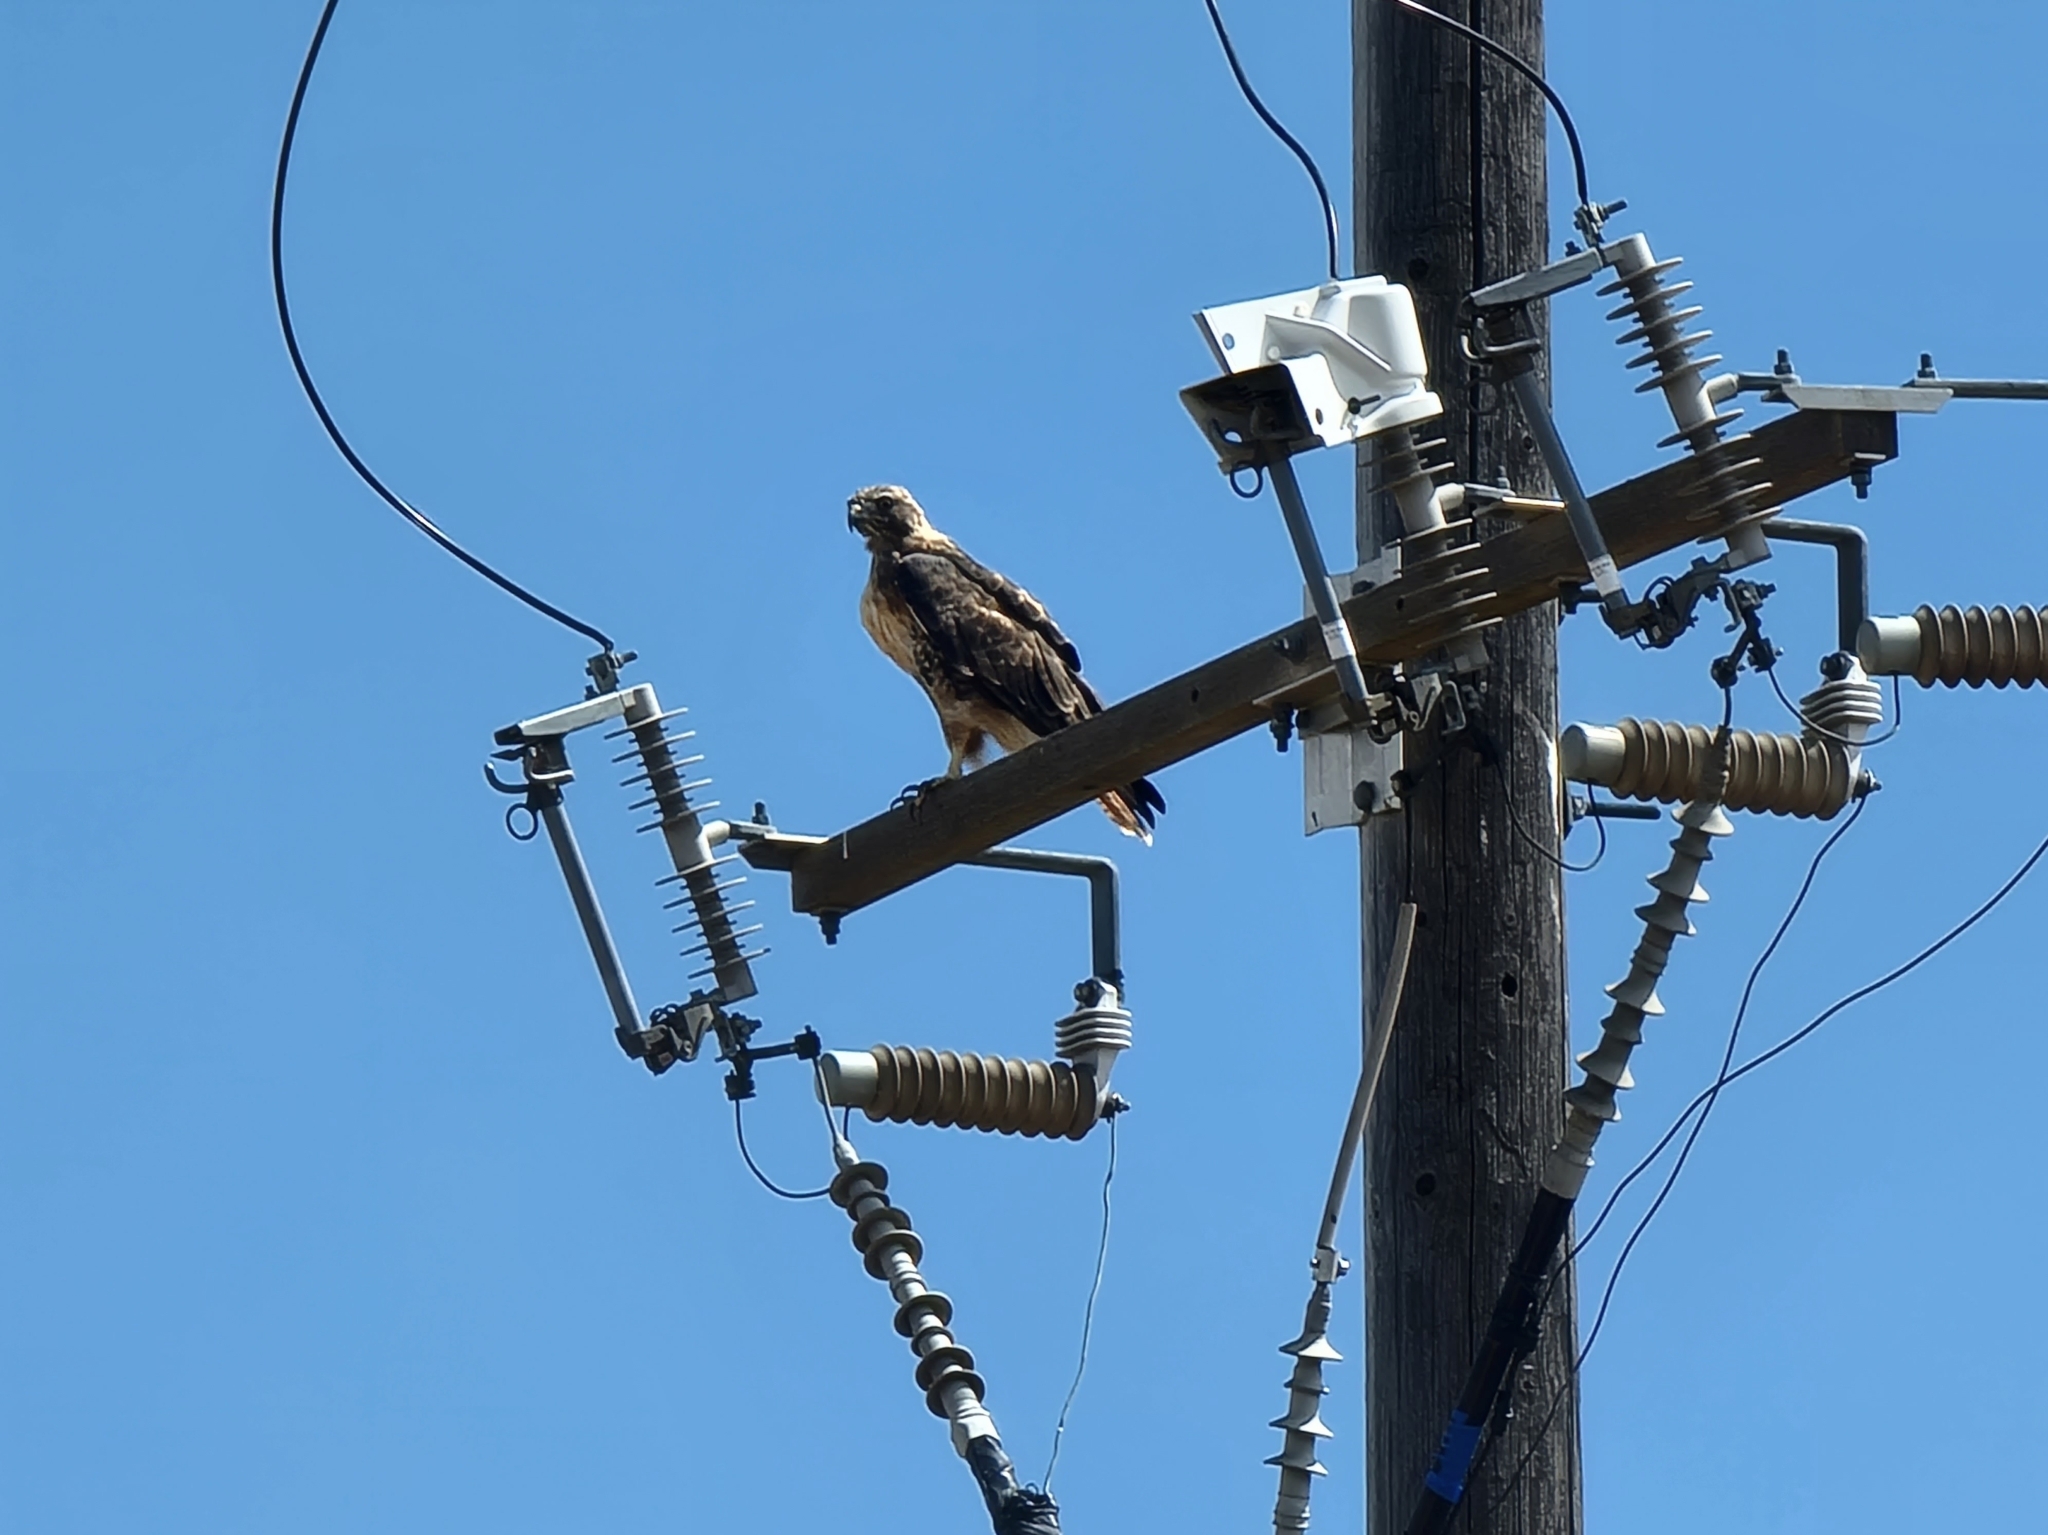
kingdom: Animalia
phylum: Chordata
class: Aves
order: Accipitriformes
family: Accipitridae
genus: Buteo
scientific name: Buteo jamaicensis
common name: Red-tailed hawk
